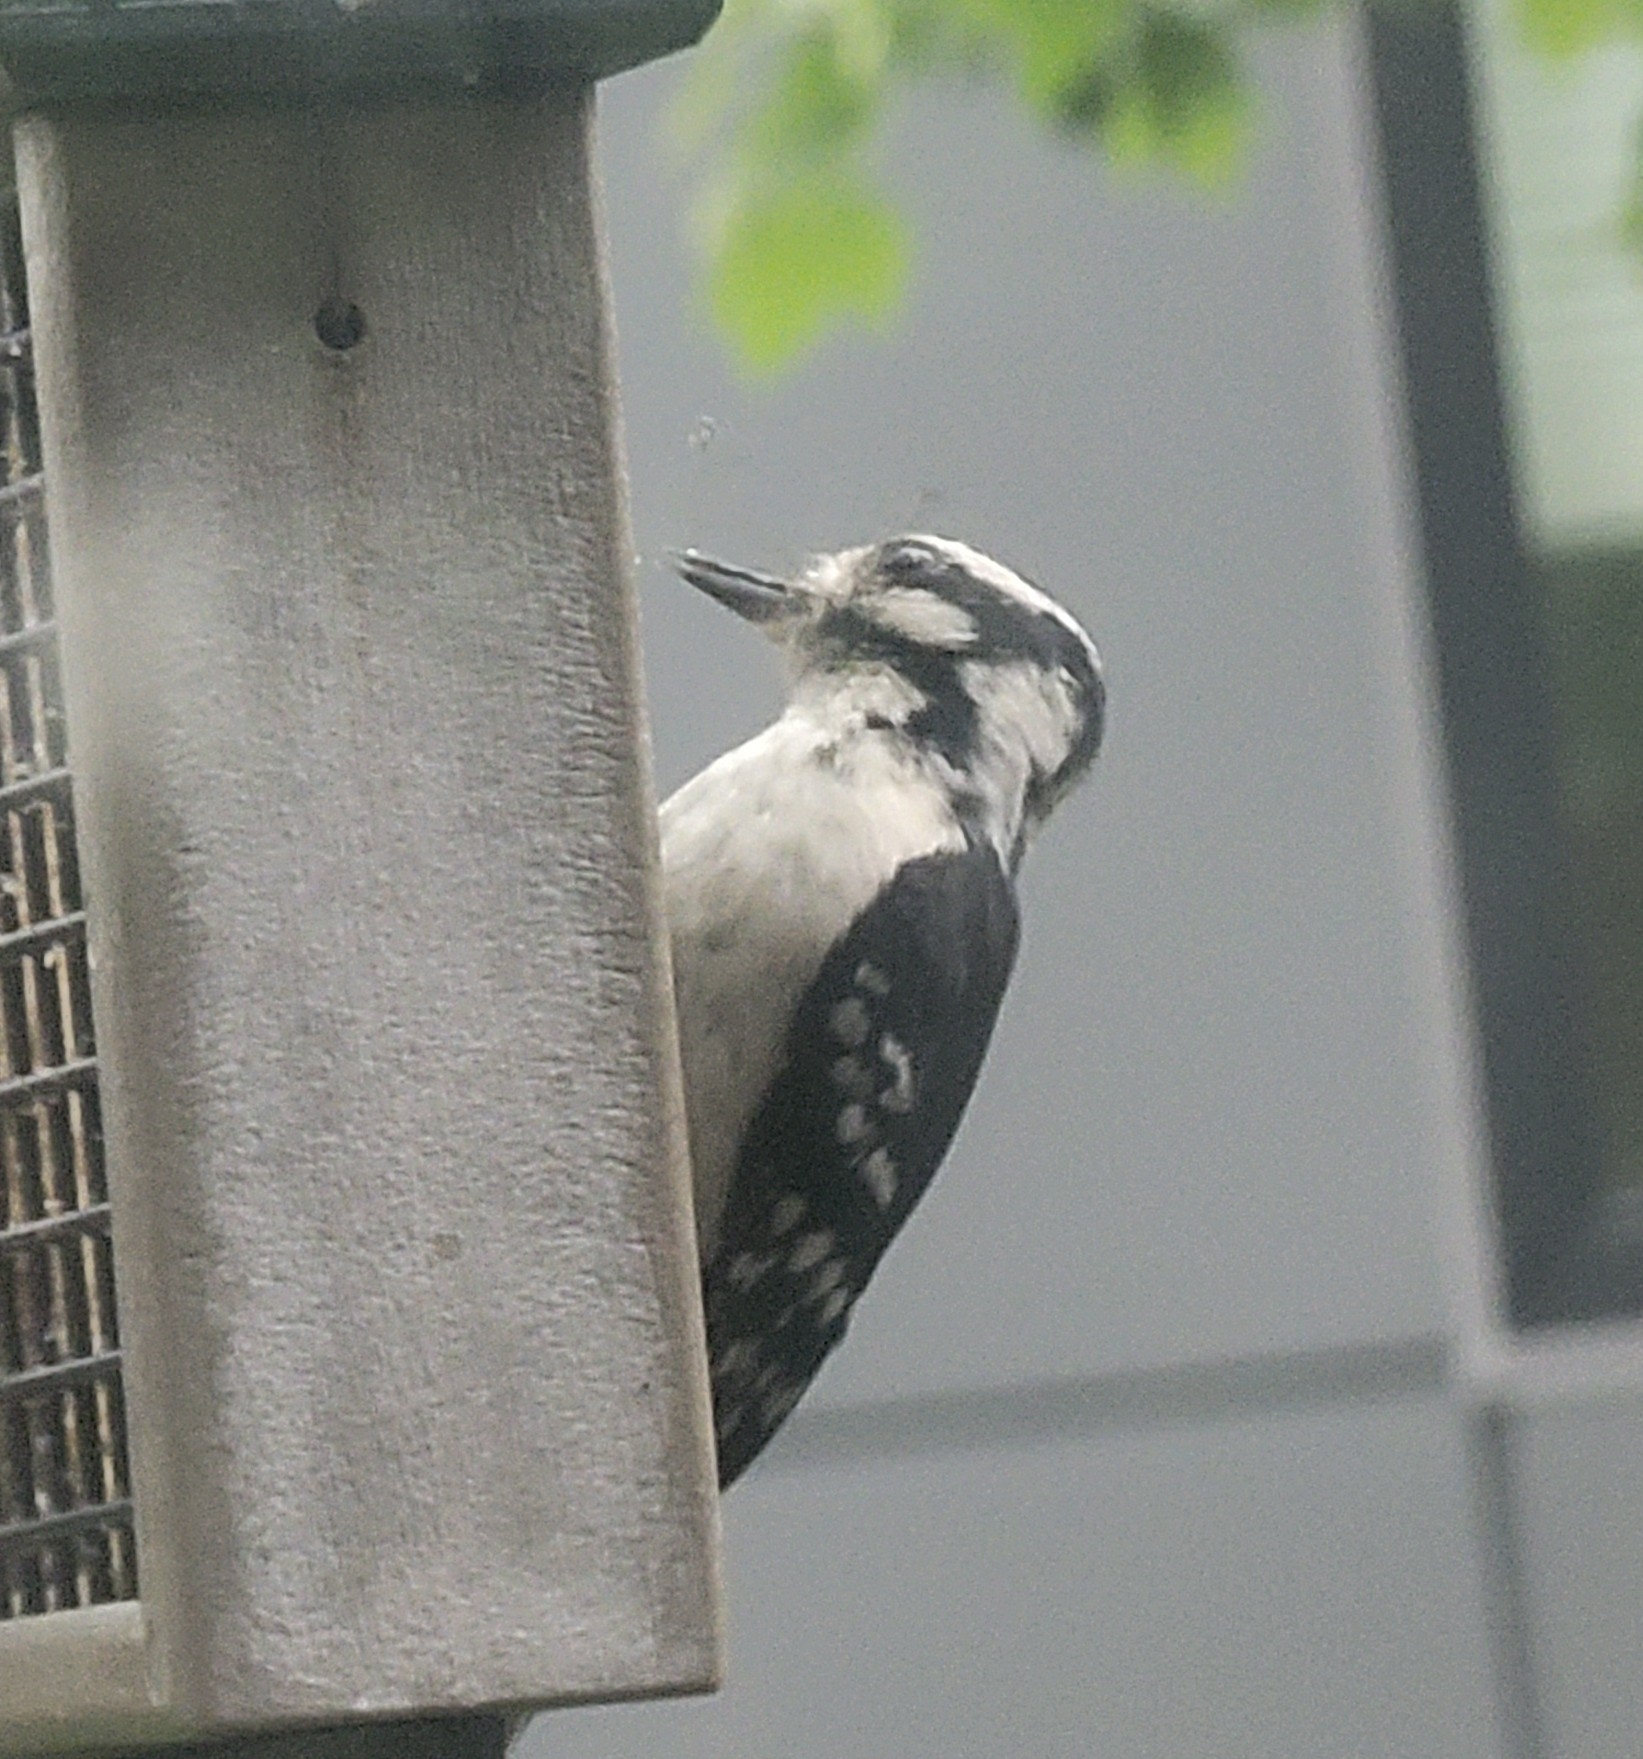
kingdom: Animalia
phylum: Chordata
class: Aves
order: Piciformes
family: Picidae
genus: Dryobates
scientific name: Dryobates pubescens
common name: Downy woodpecker
